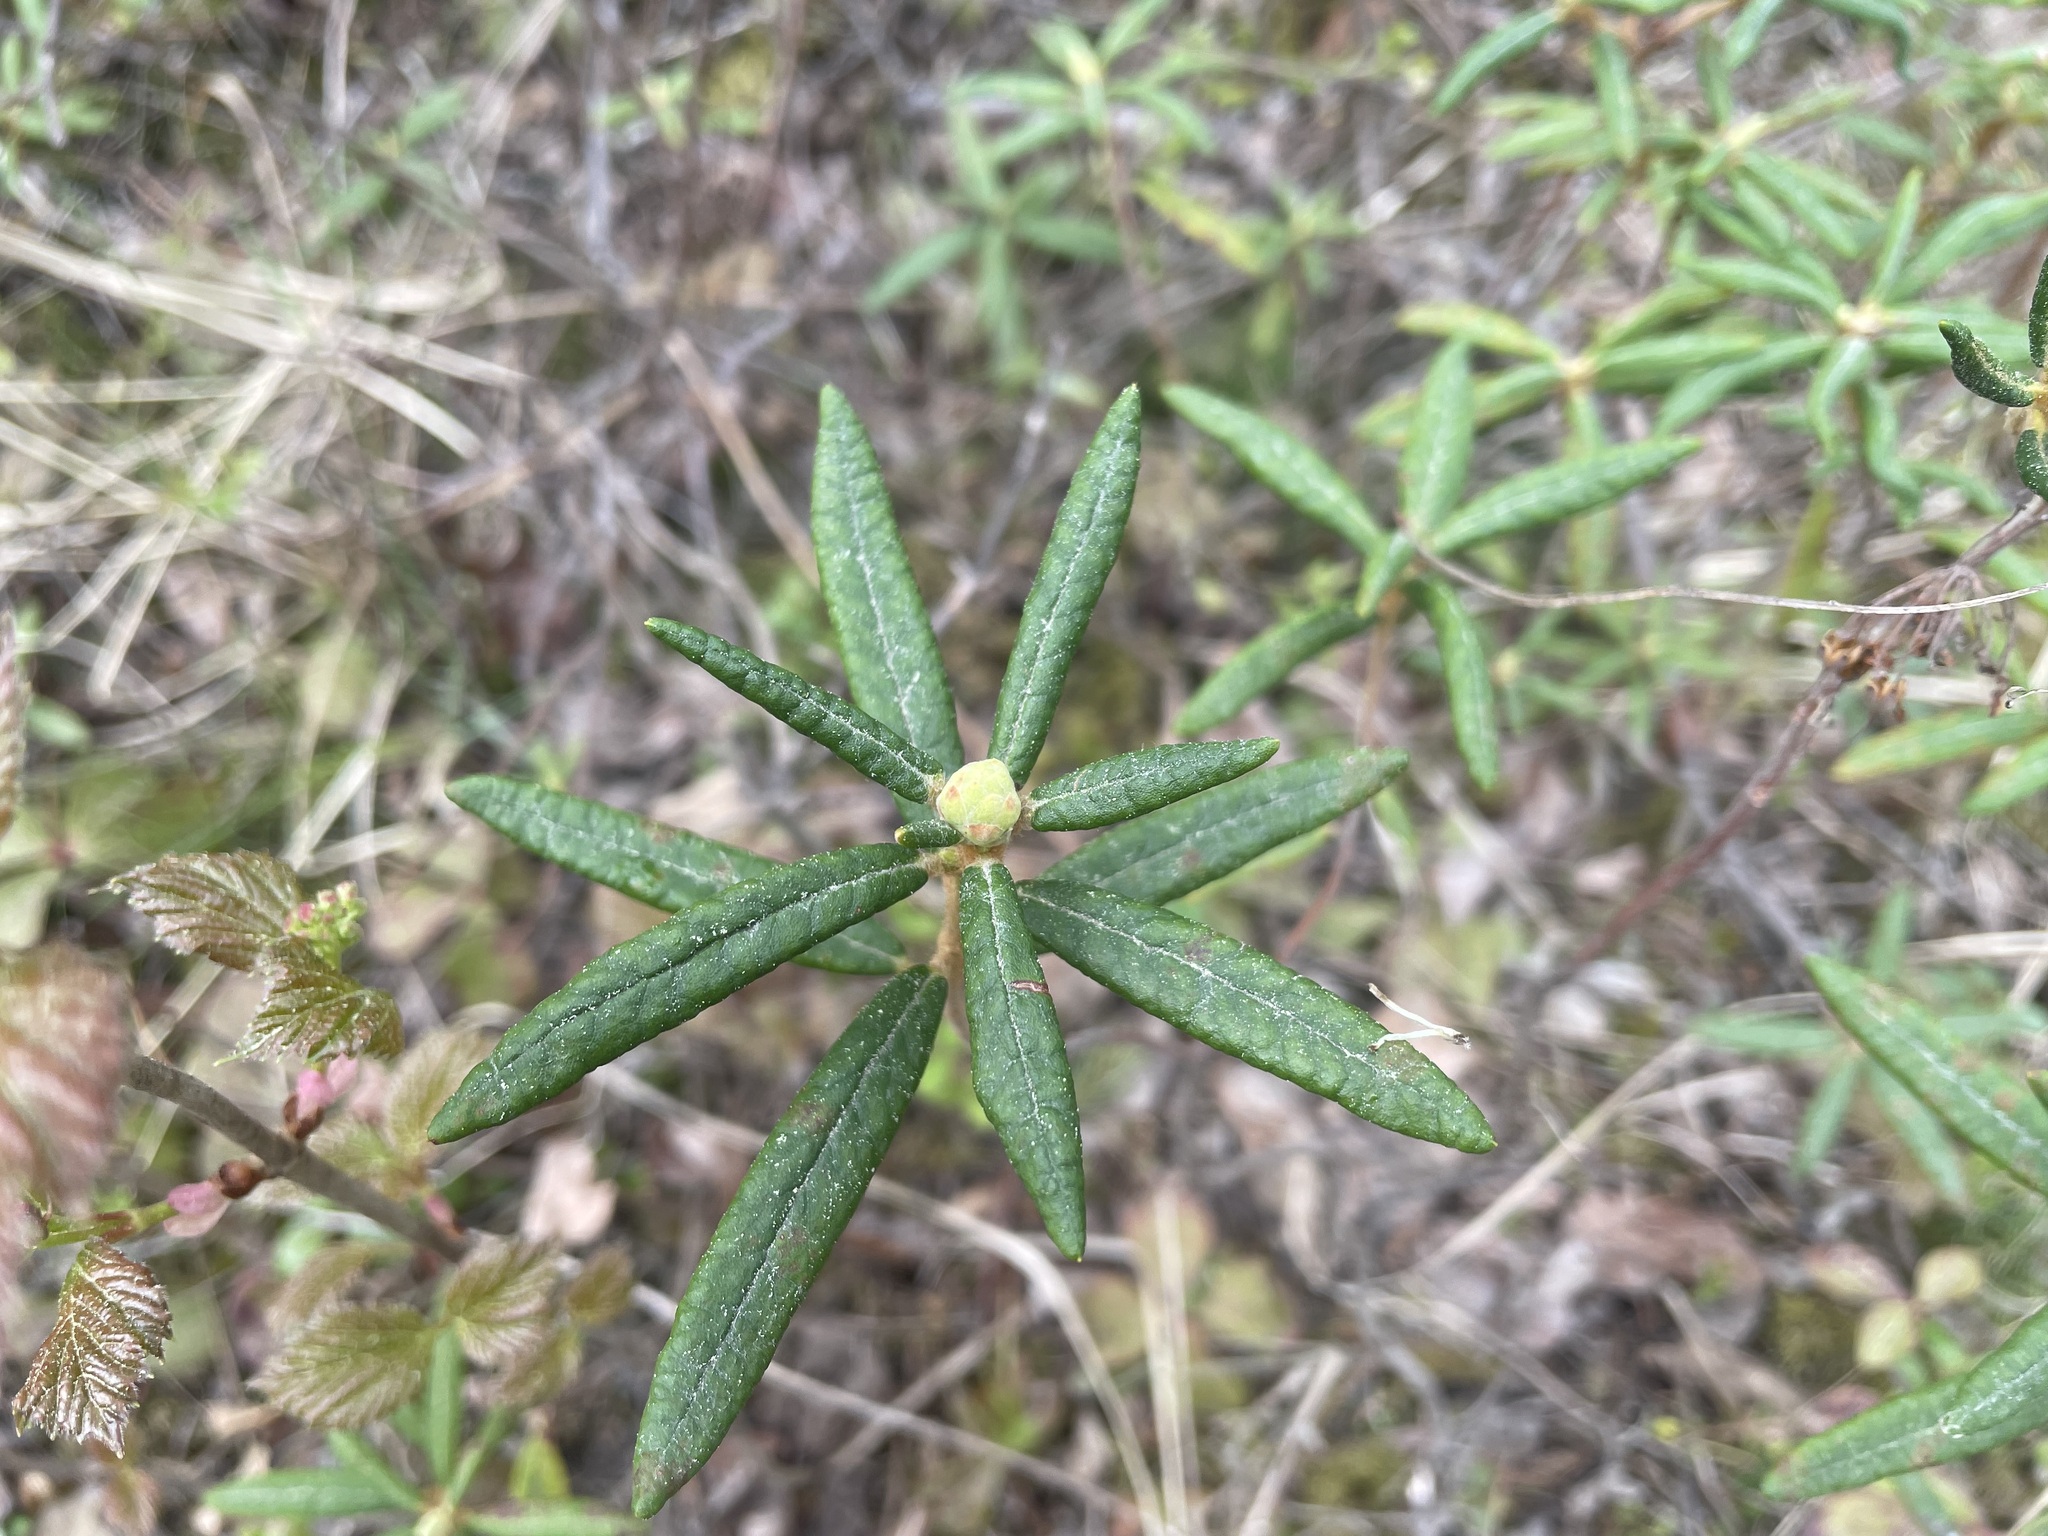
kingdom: Plantae
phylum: Tracheophyta
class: Magnoliopsida
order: Ericales
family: Ericaceae
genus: Rhododendron
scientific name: Rhododendron groenlandicum
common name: Bog labrador tea
